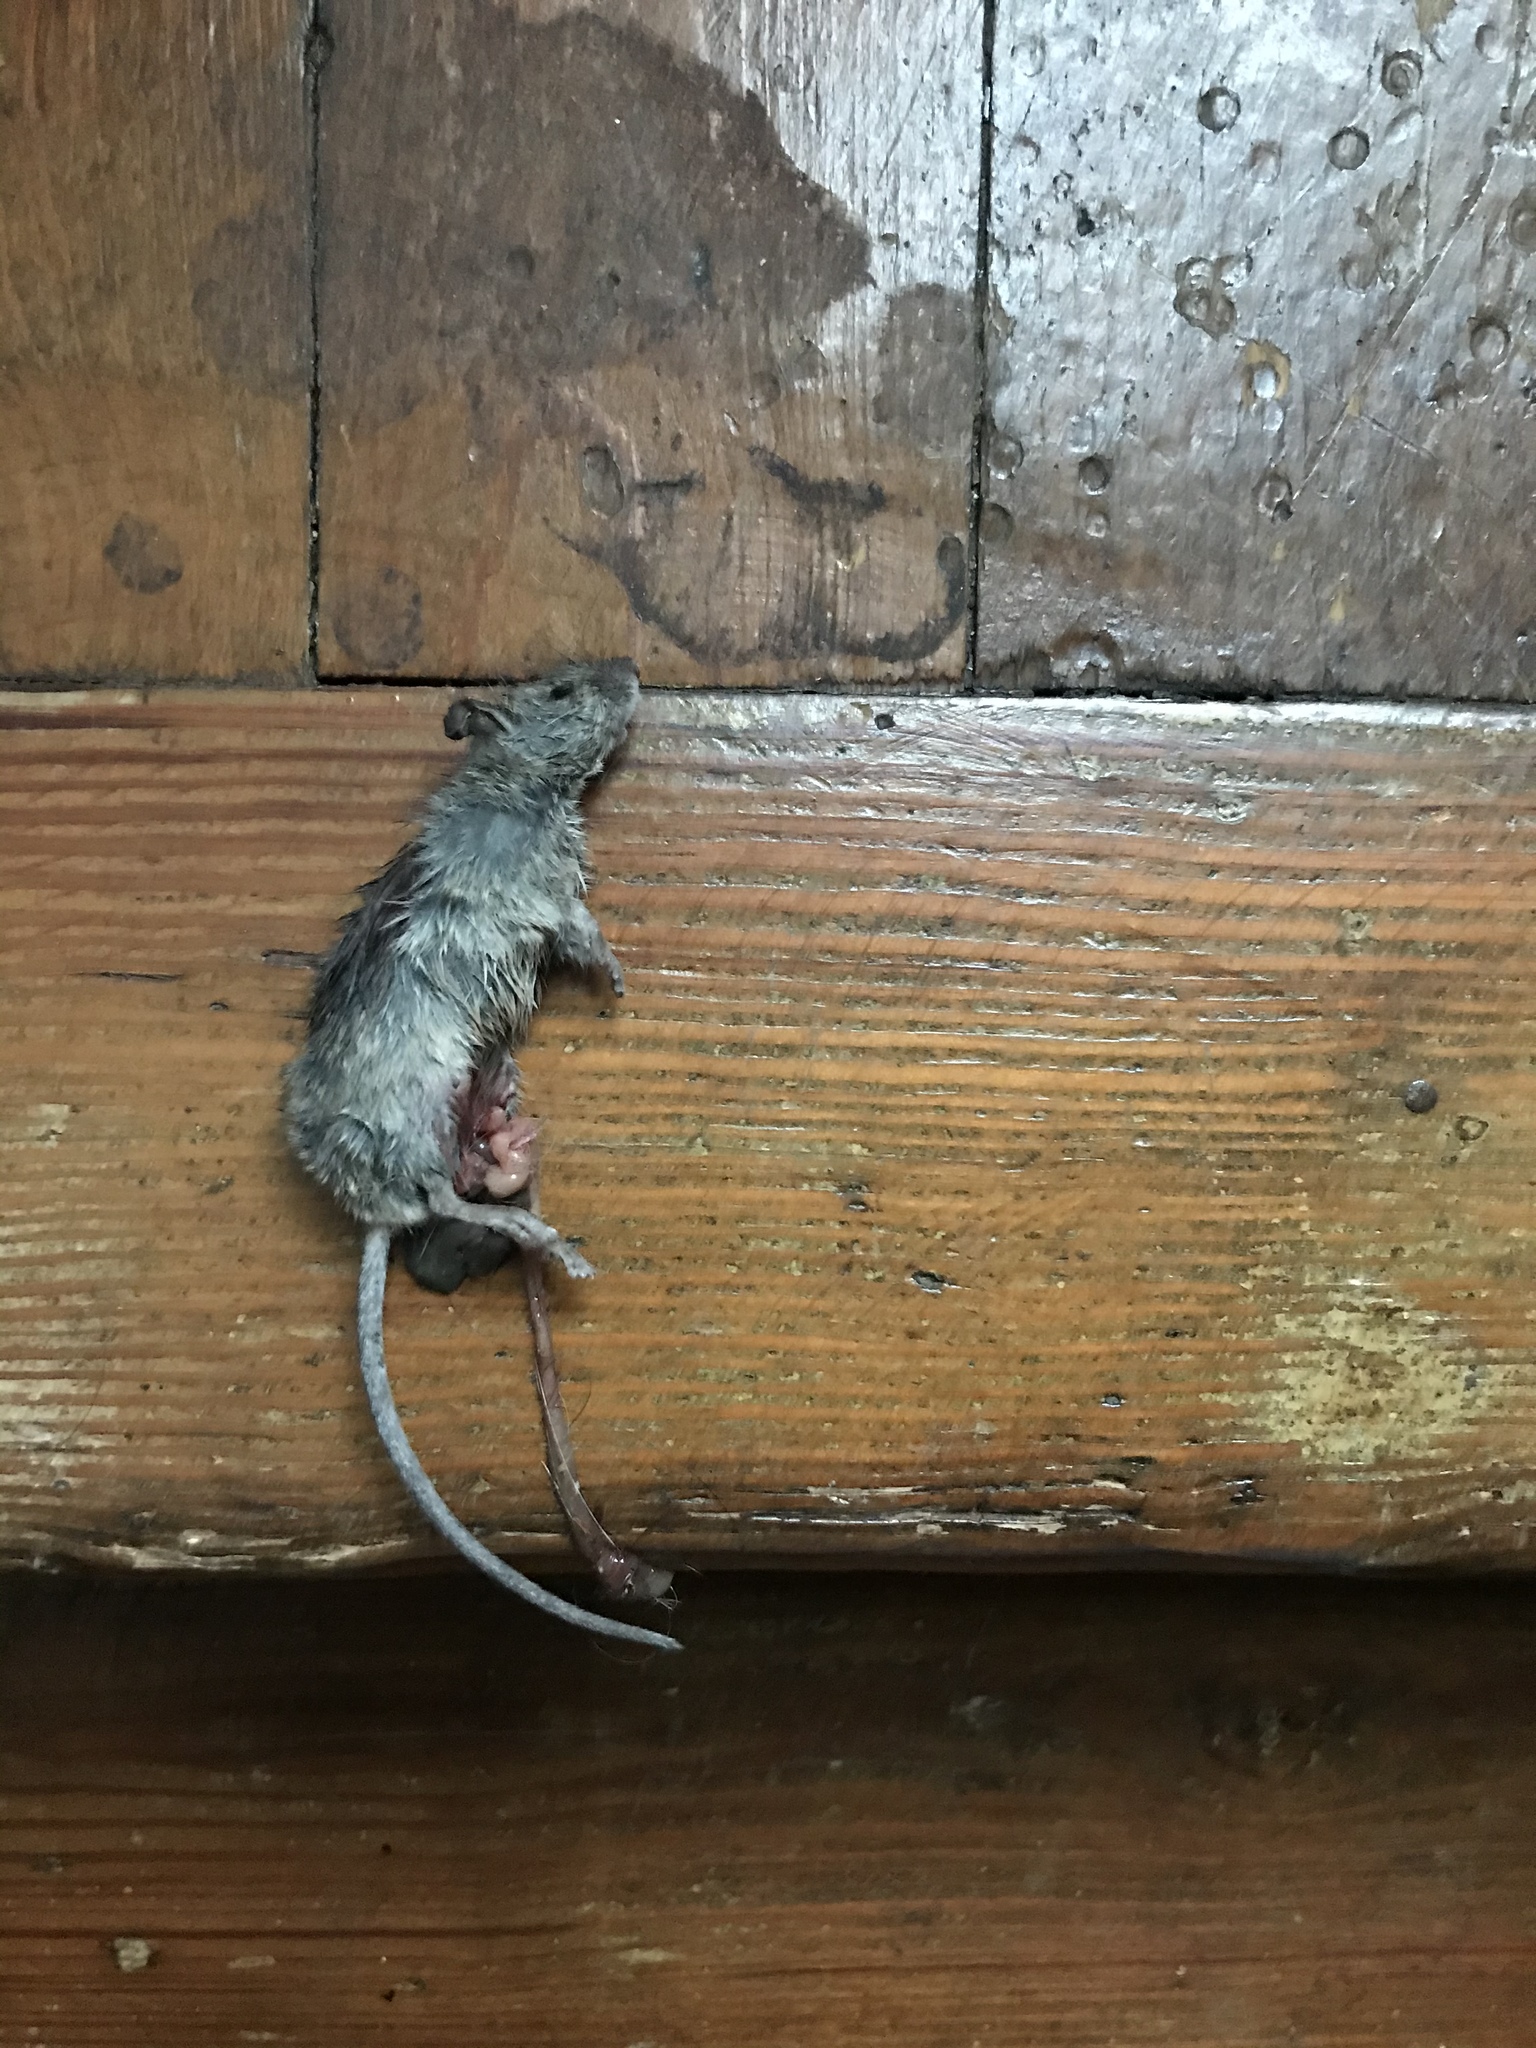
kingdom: Animalia
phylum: Chordata
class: Mammalia
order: Rodentia
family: Muridae
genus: Mus
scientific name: Mus musculus
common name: House mouse
